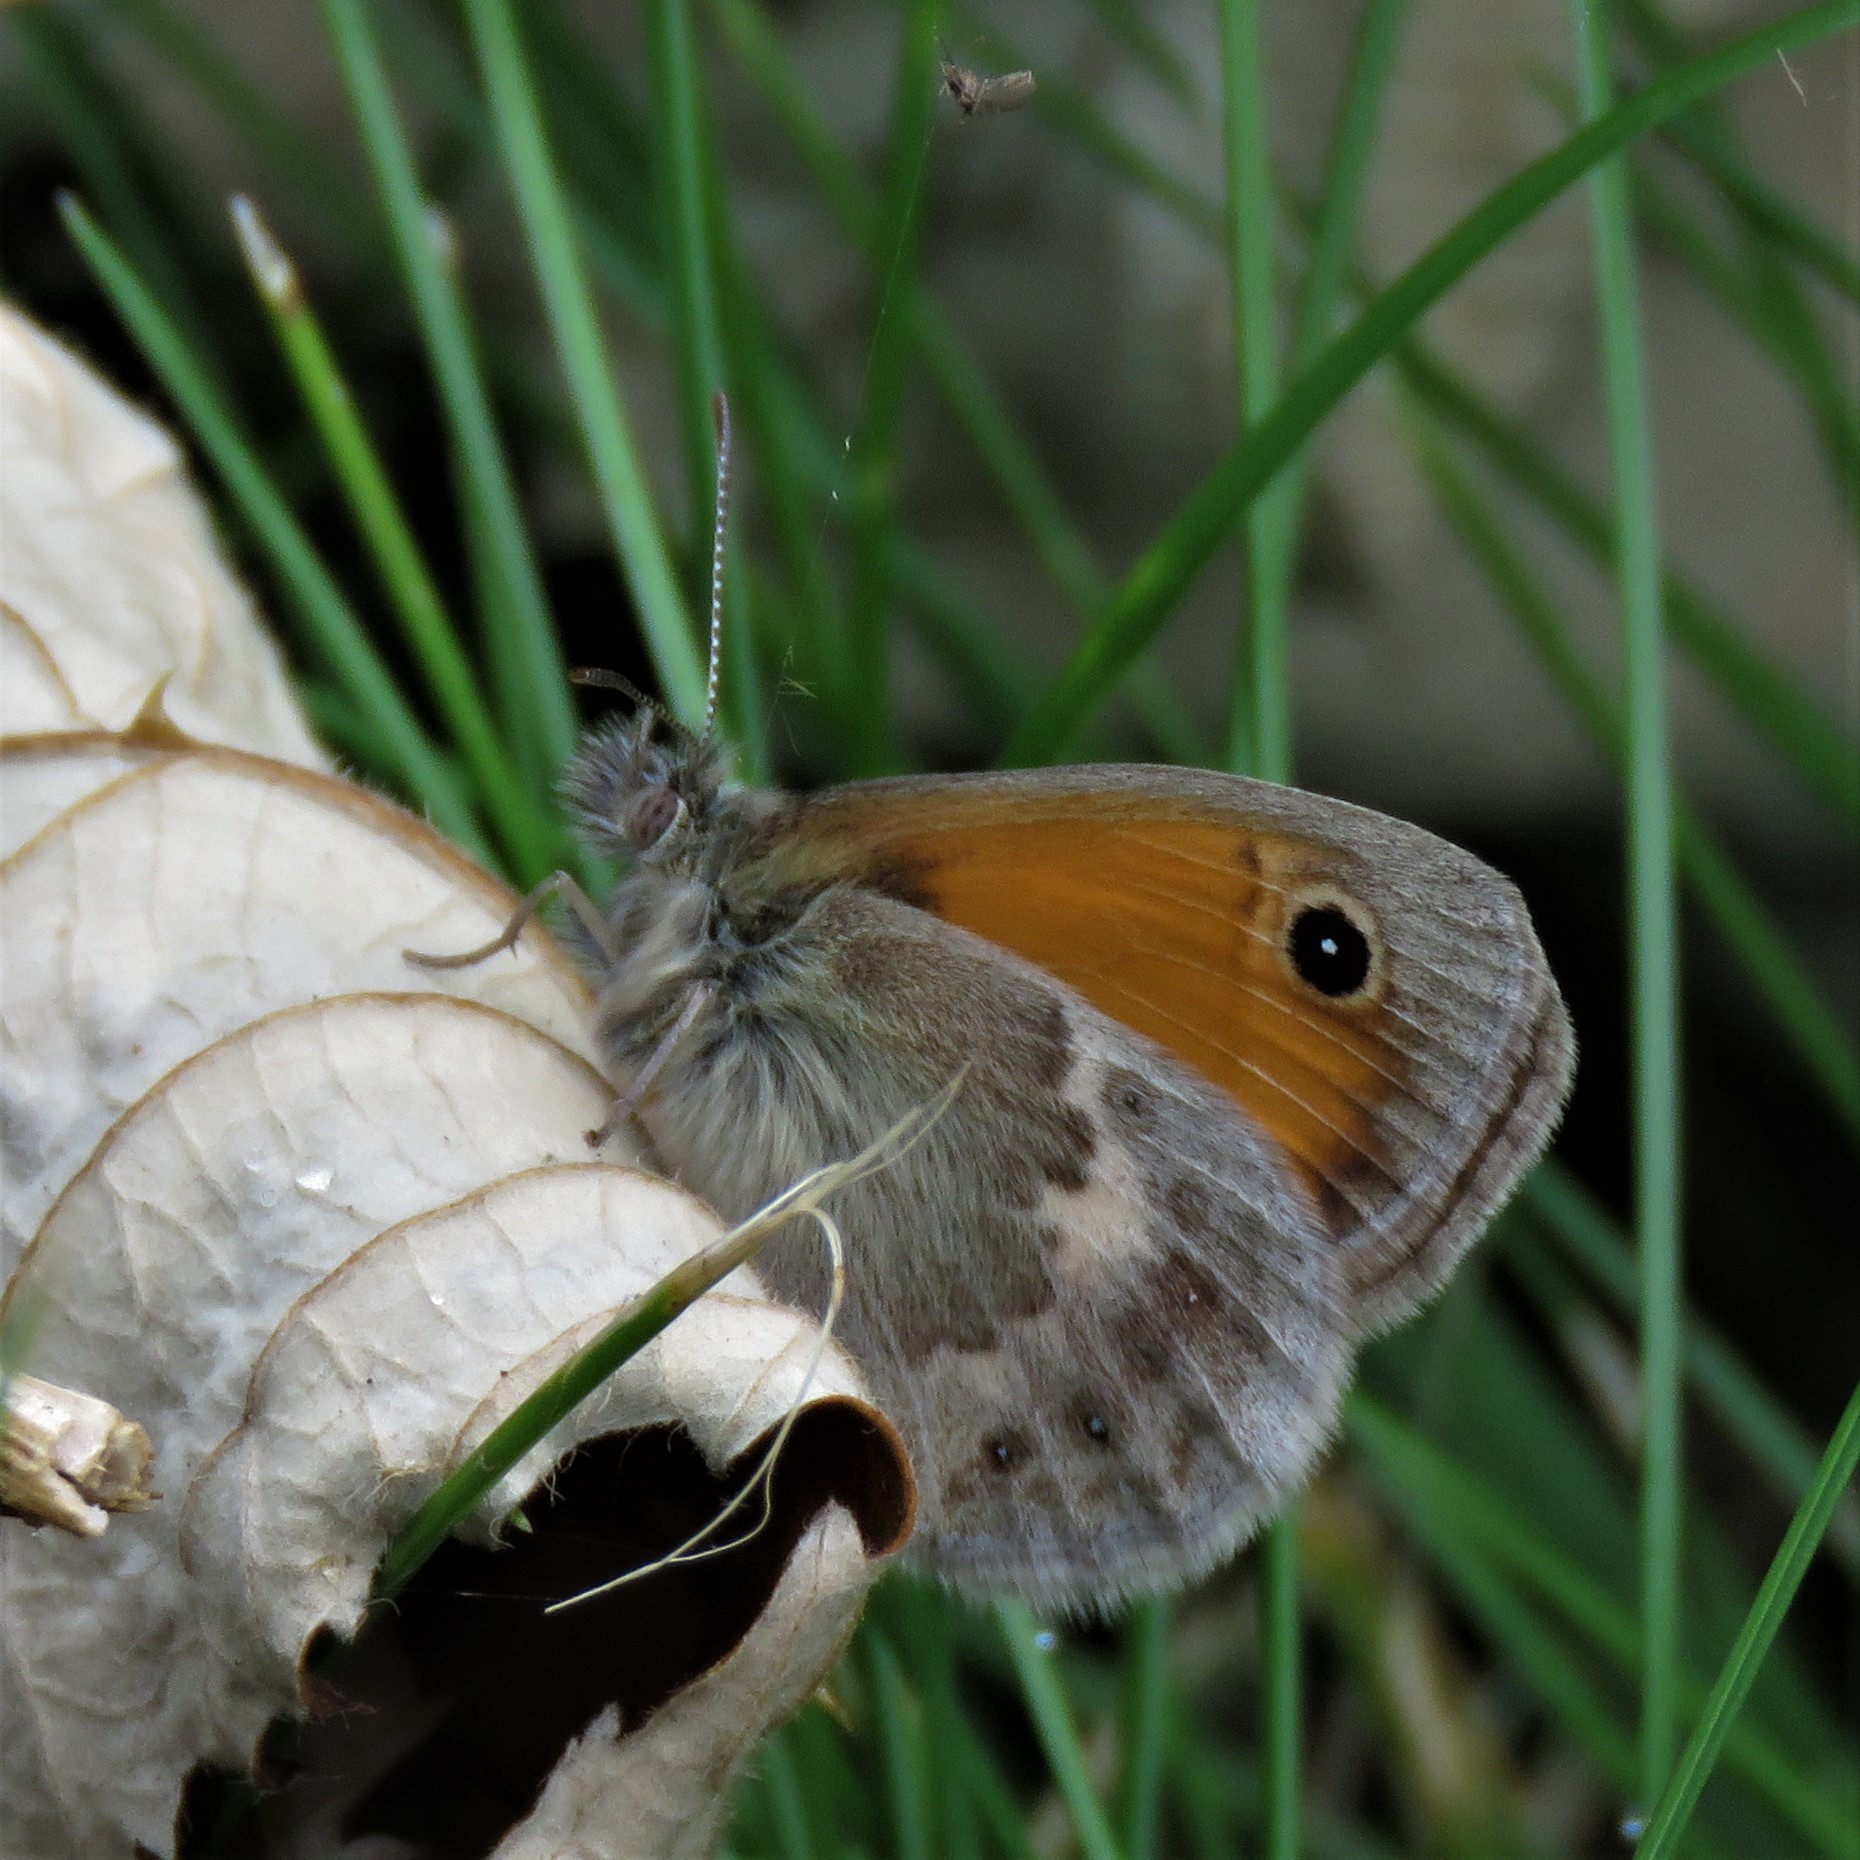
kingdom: Animalia
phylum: Arthropoda
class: Insecta
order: Lepidoptera
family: Nymphalidae
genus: Coenonympha
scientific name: Coenonympha pamphilus
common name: Small heath
